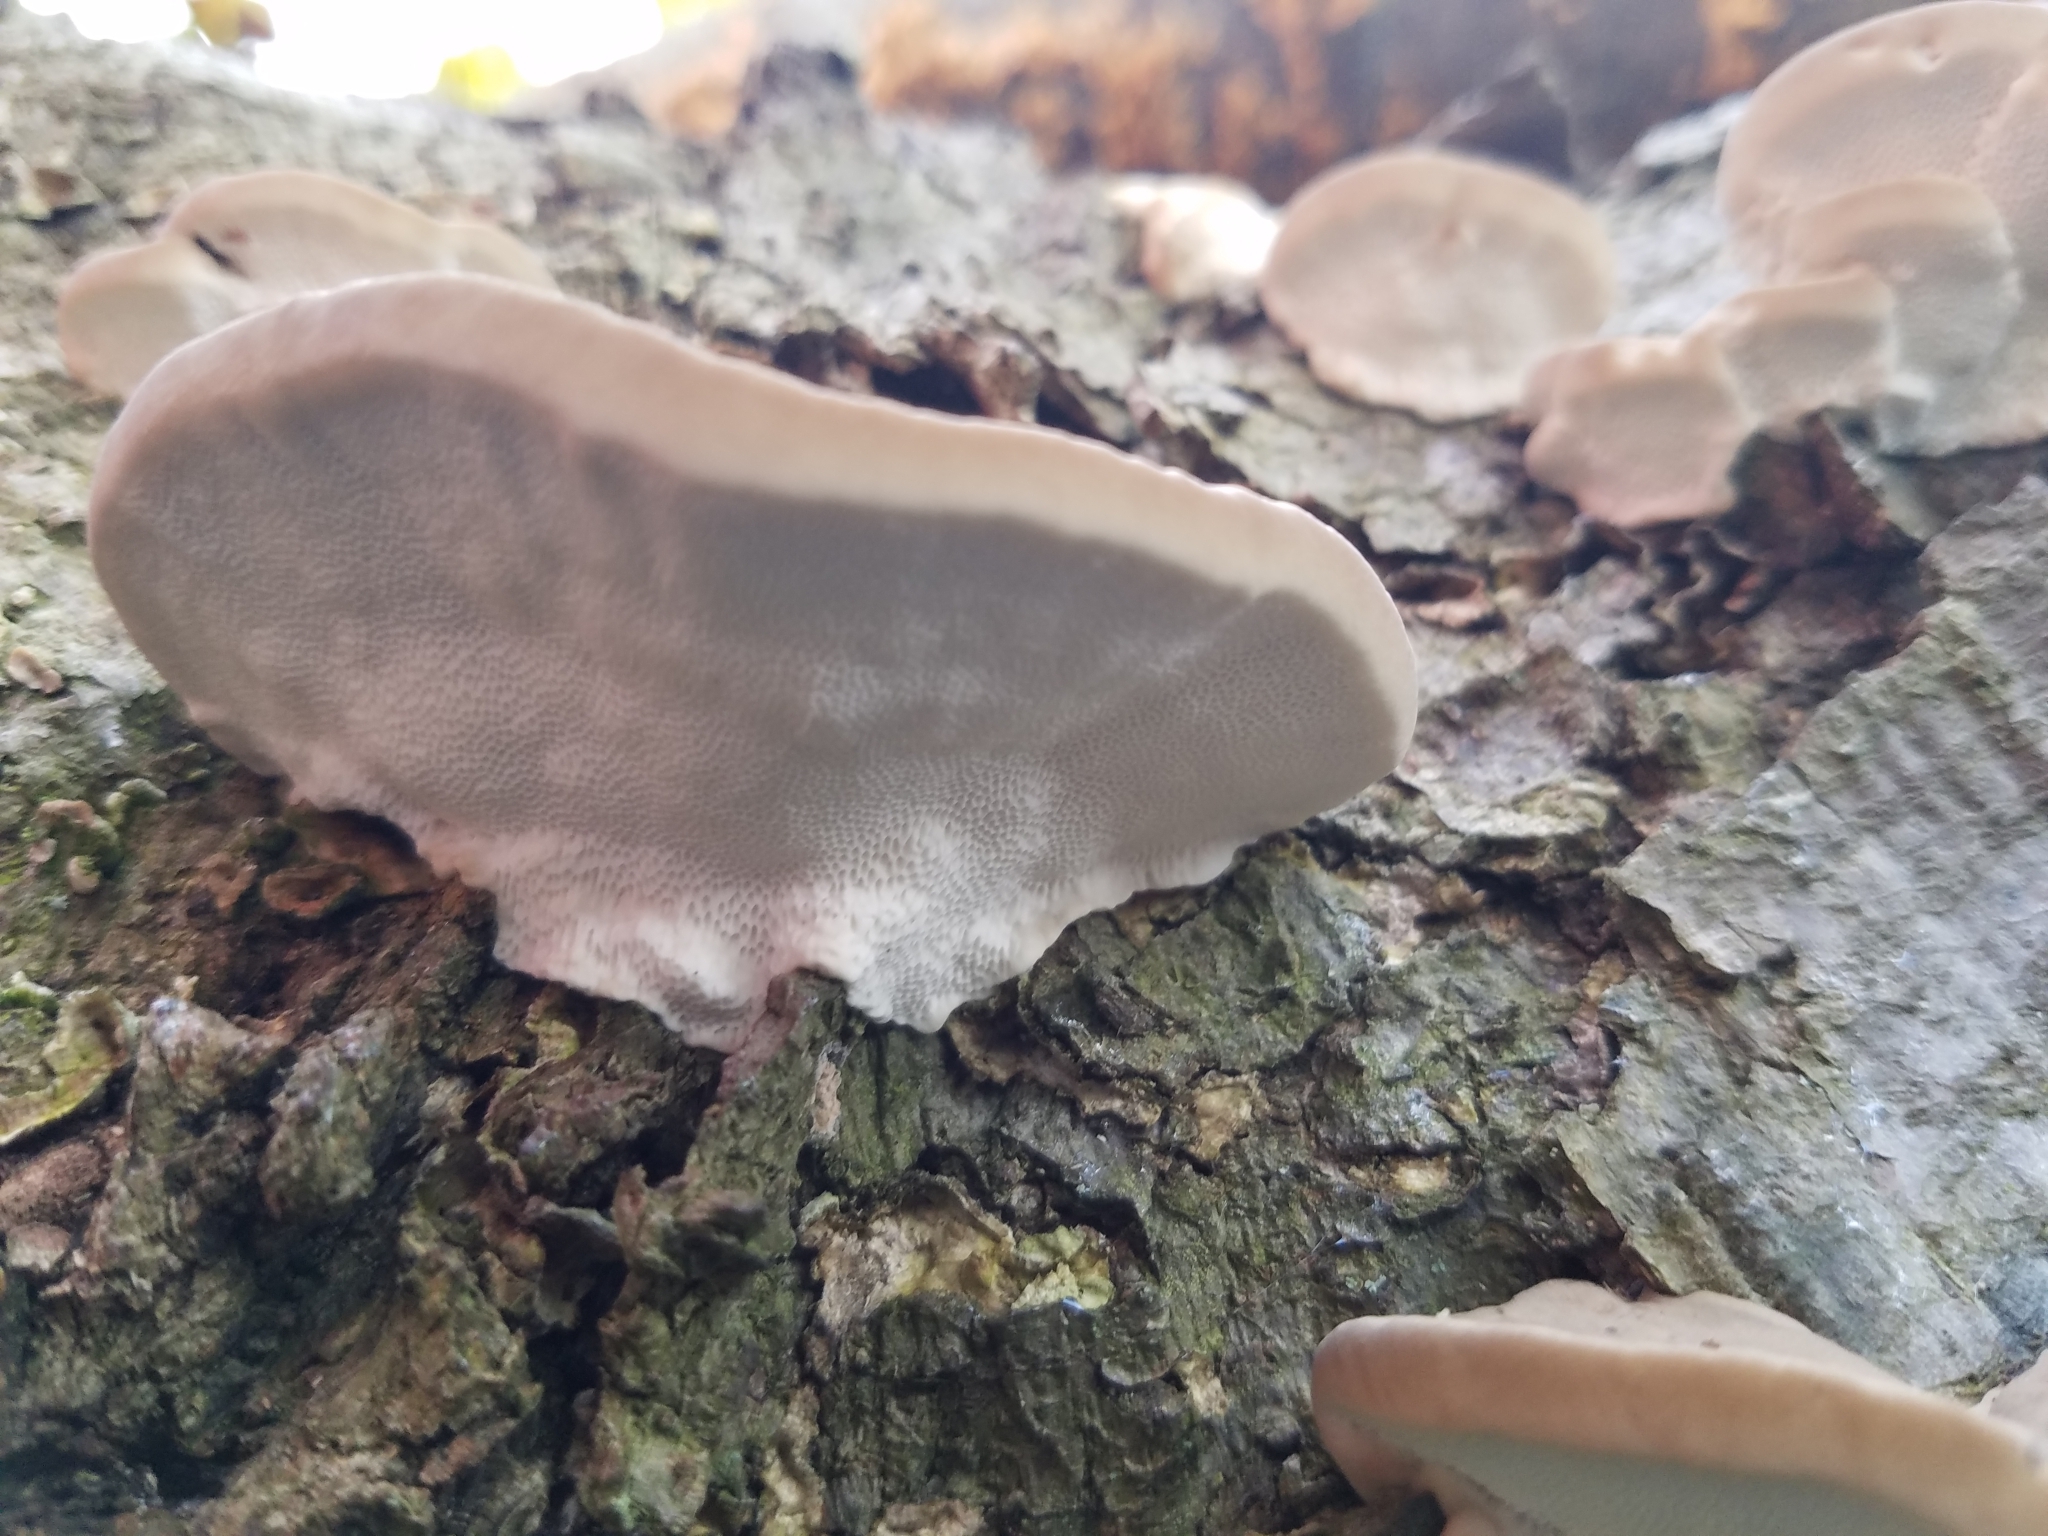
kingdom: Fungi
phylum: Basidiomycota
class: Agaricomycetes
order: Polyporales
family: Polyporaceae
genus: Trametes
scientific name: Trametes lactinea
